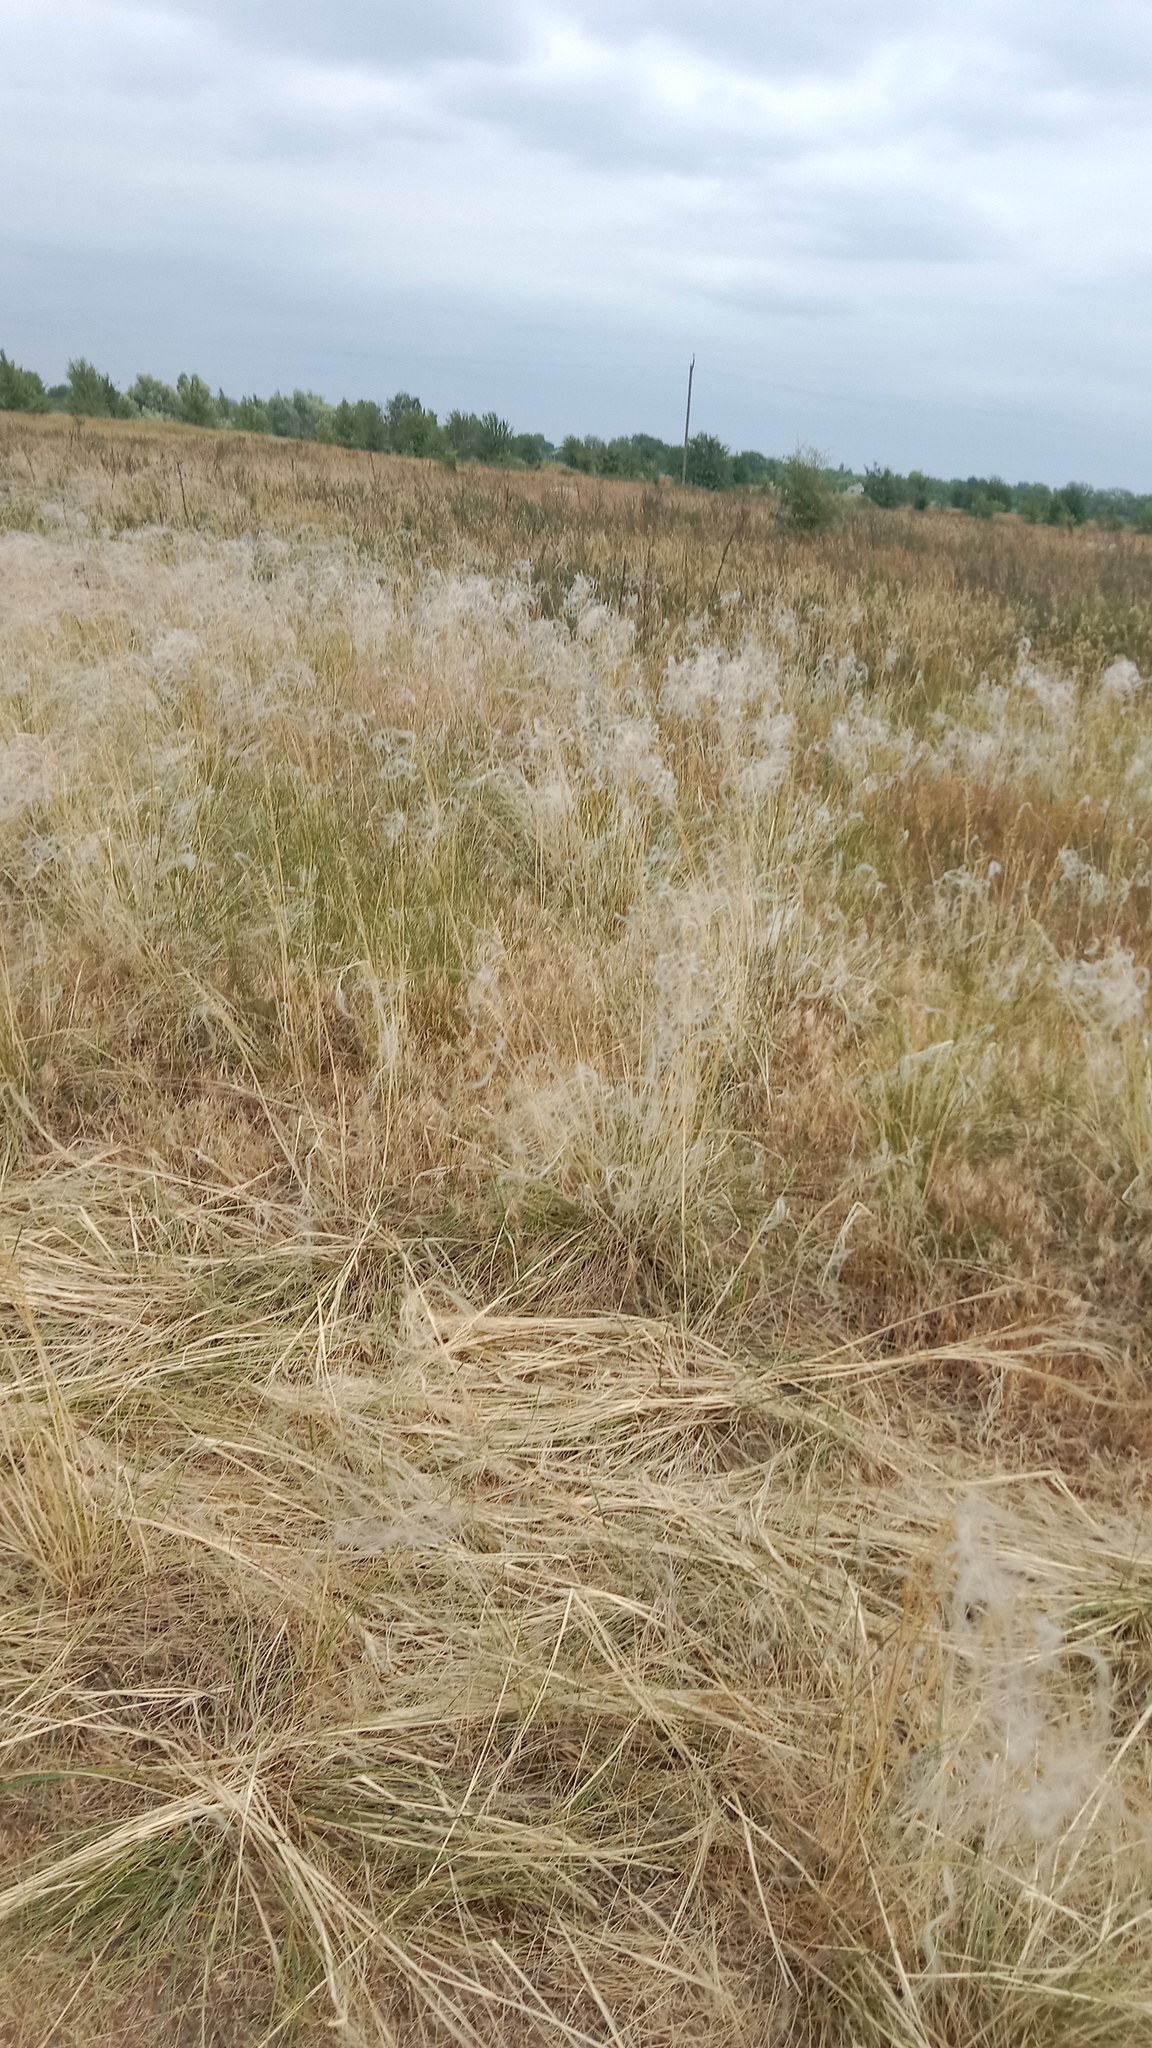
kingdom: Plantae
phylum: Tracheophyta
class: Liliopsida
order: Poales
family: Poaceae
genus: Stipa
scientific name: Stipa borysthenica
